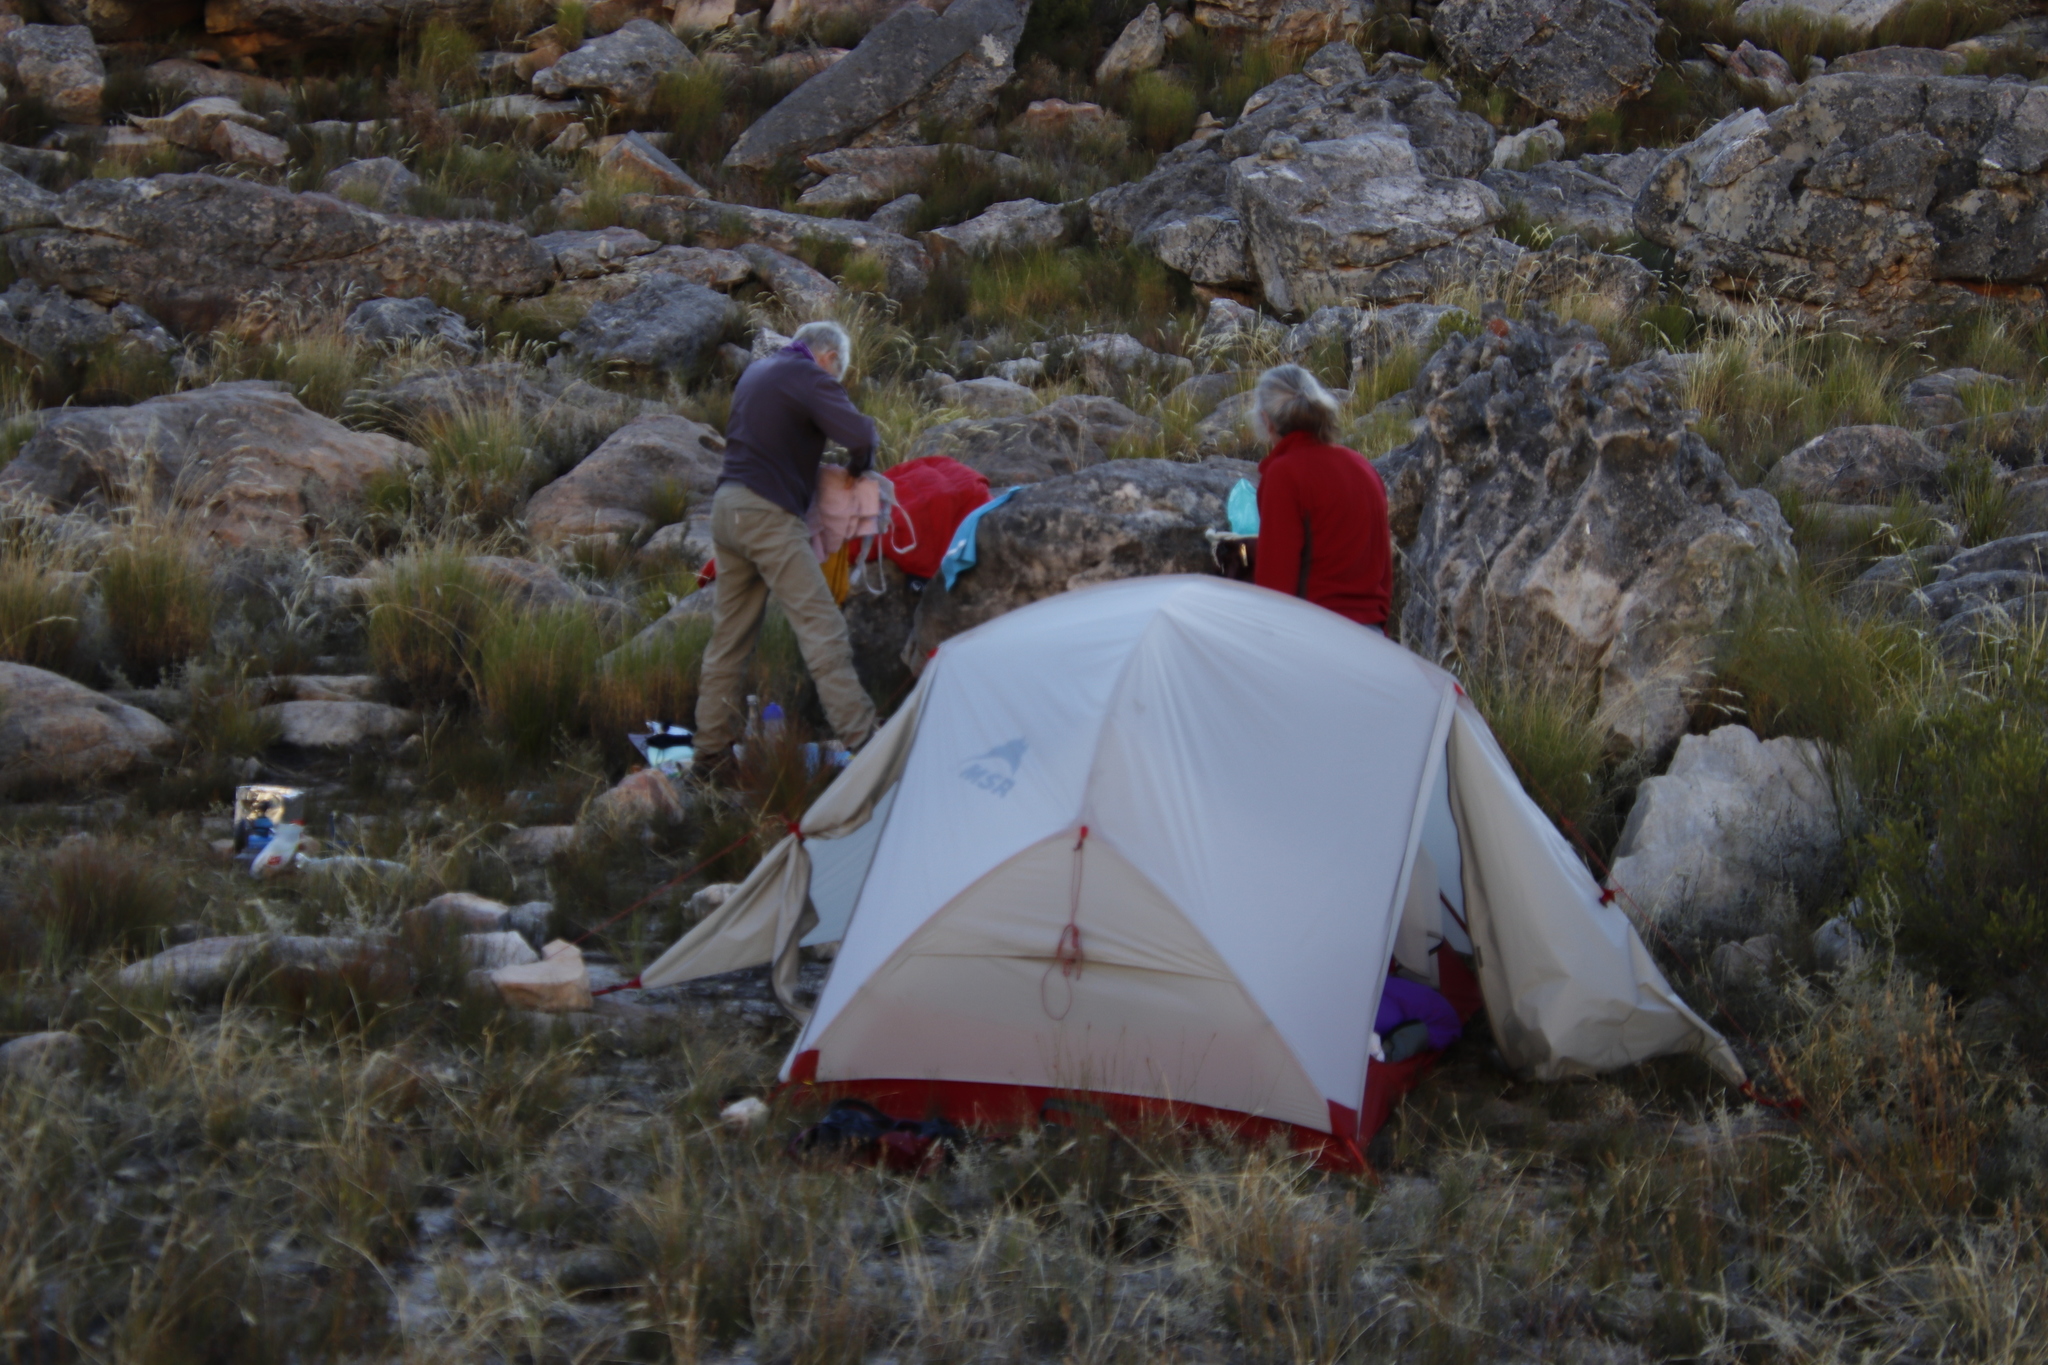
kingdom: Plantae
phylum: Tracheophyta
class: Magnoliopsida
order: Ericales
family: Ebenaceae
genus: Diospyros
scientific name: Diospyros glabra
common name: Fynbos star apple
